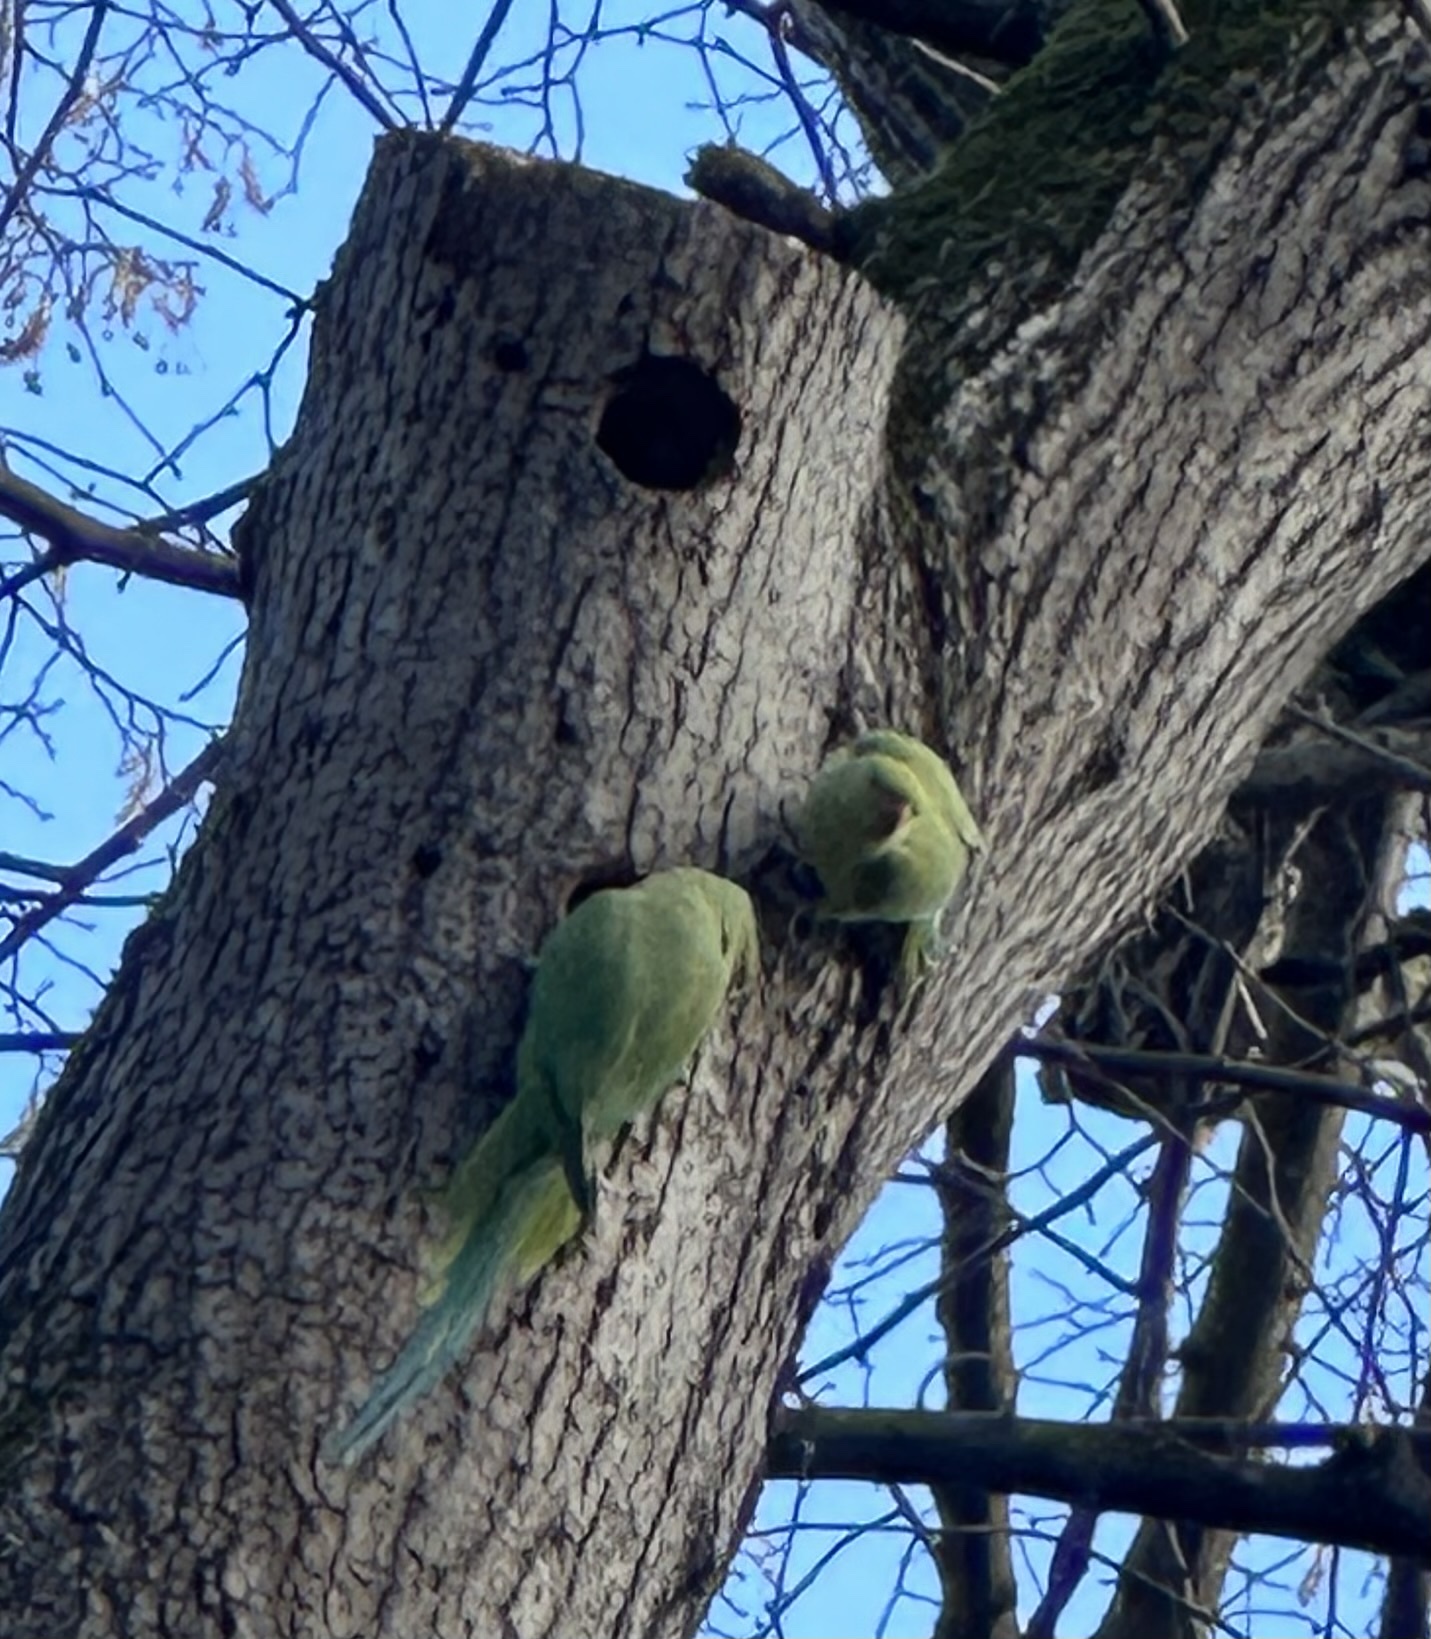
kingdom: Animalia
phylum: Chordata
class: Aves
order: Psittaciformes
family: Psittacidae
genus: Psittacula
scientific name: Psittacula krameri
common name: Rose-ringed parakeet
